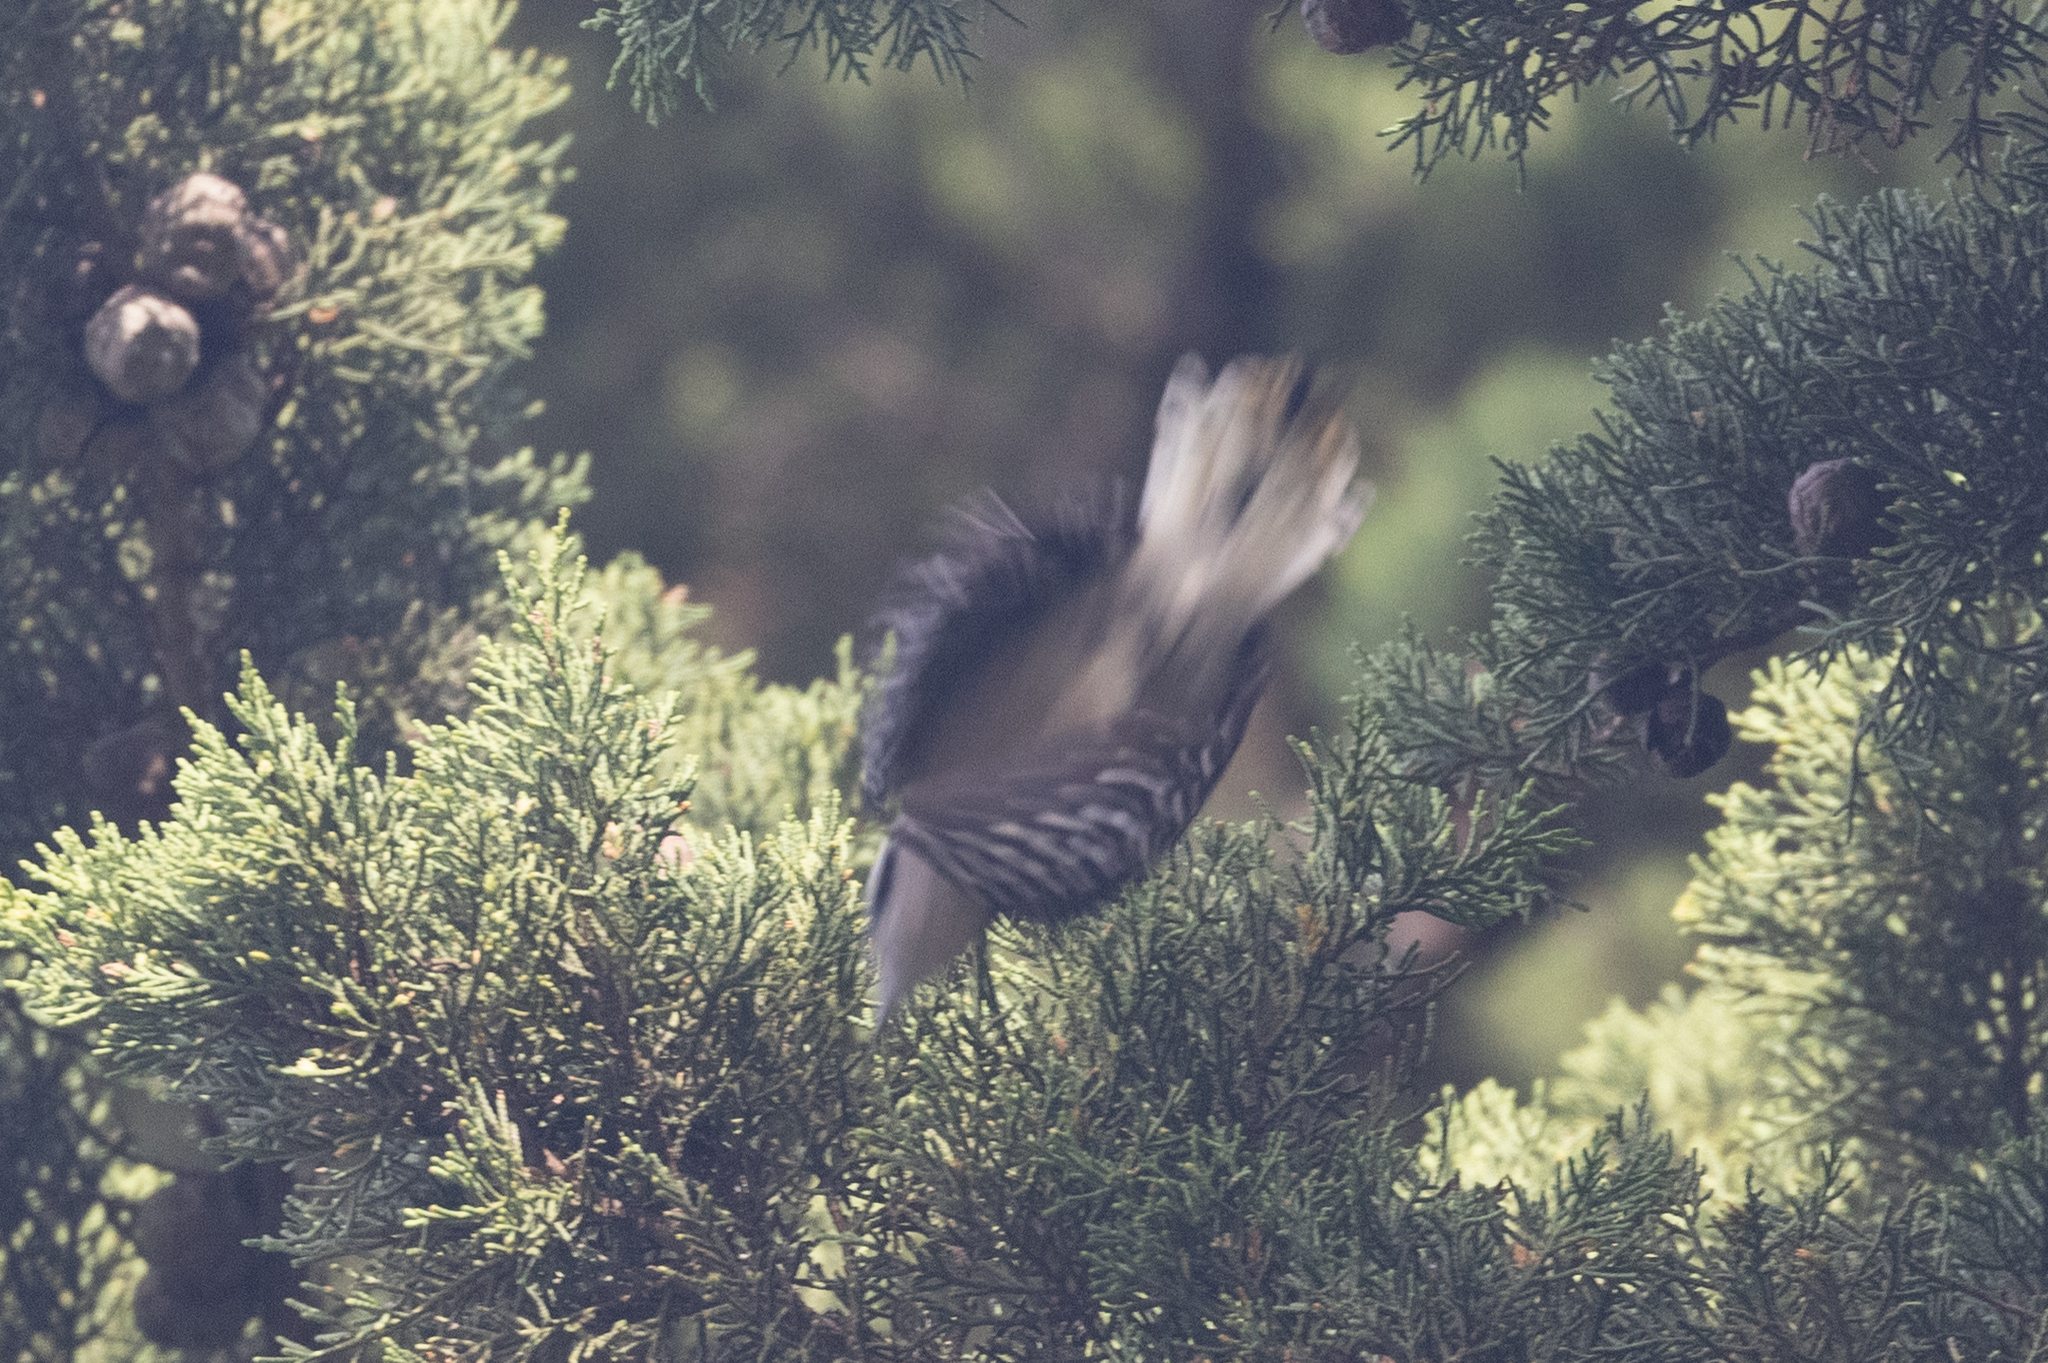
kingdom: Animalia
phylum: Chordata
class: Aves
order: Piciformes
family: Picidae
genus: Dryobates
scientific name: Dryobates pubescens
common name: Downy woodpecker
